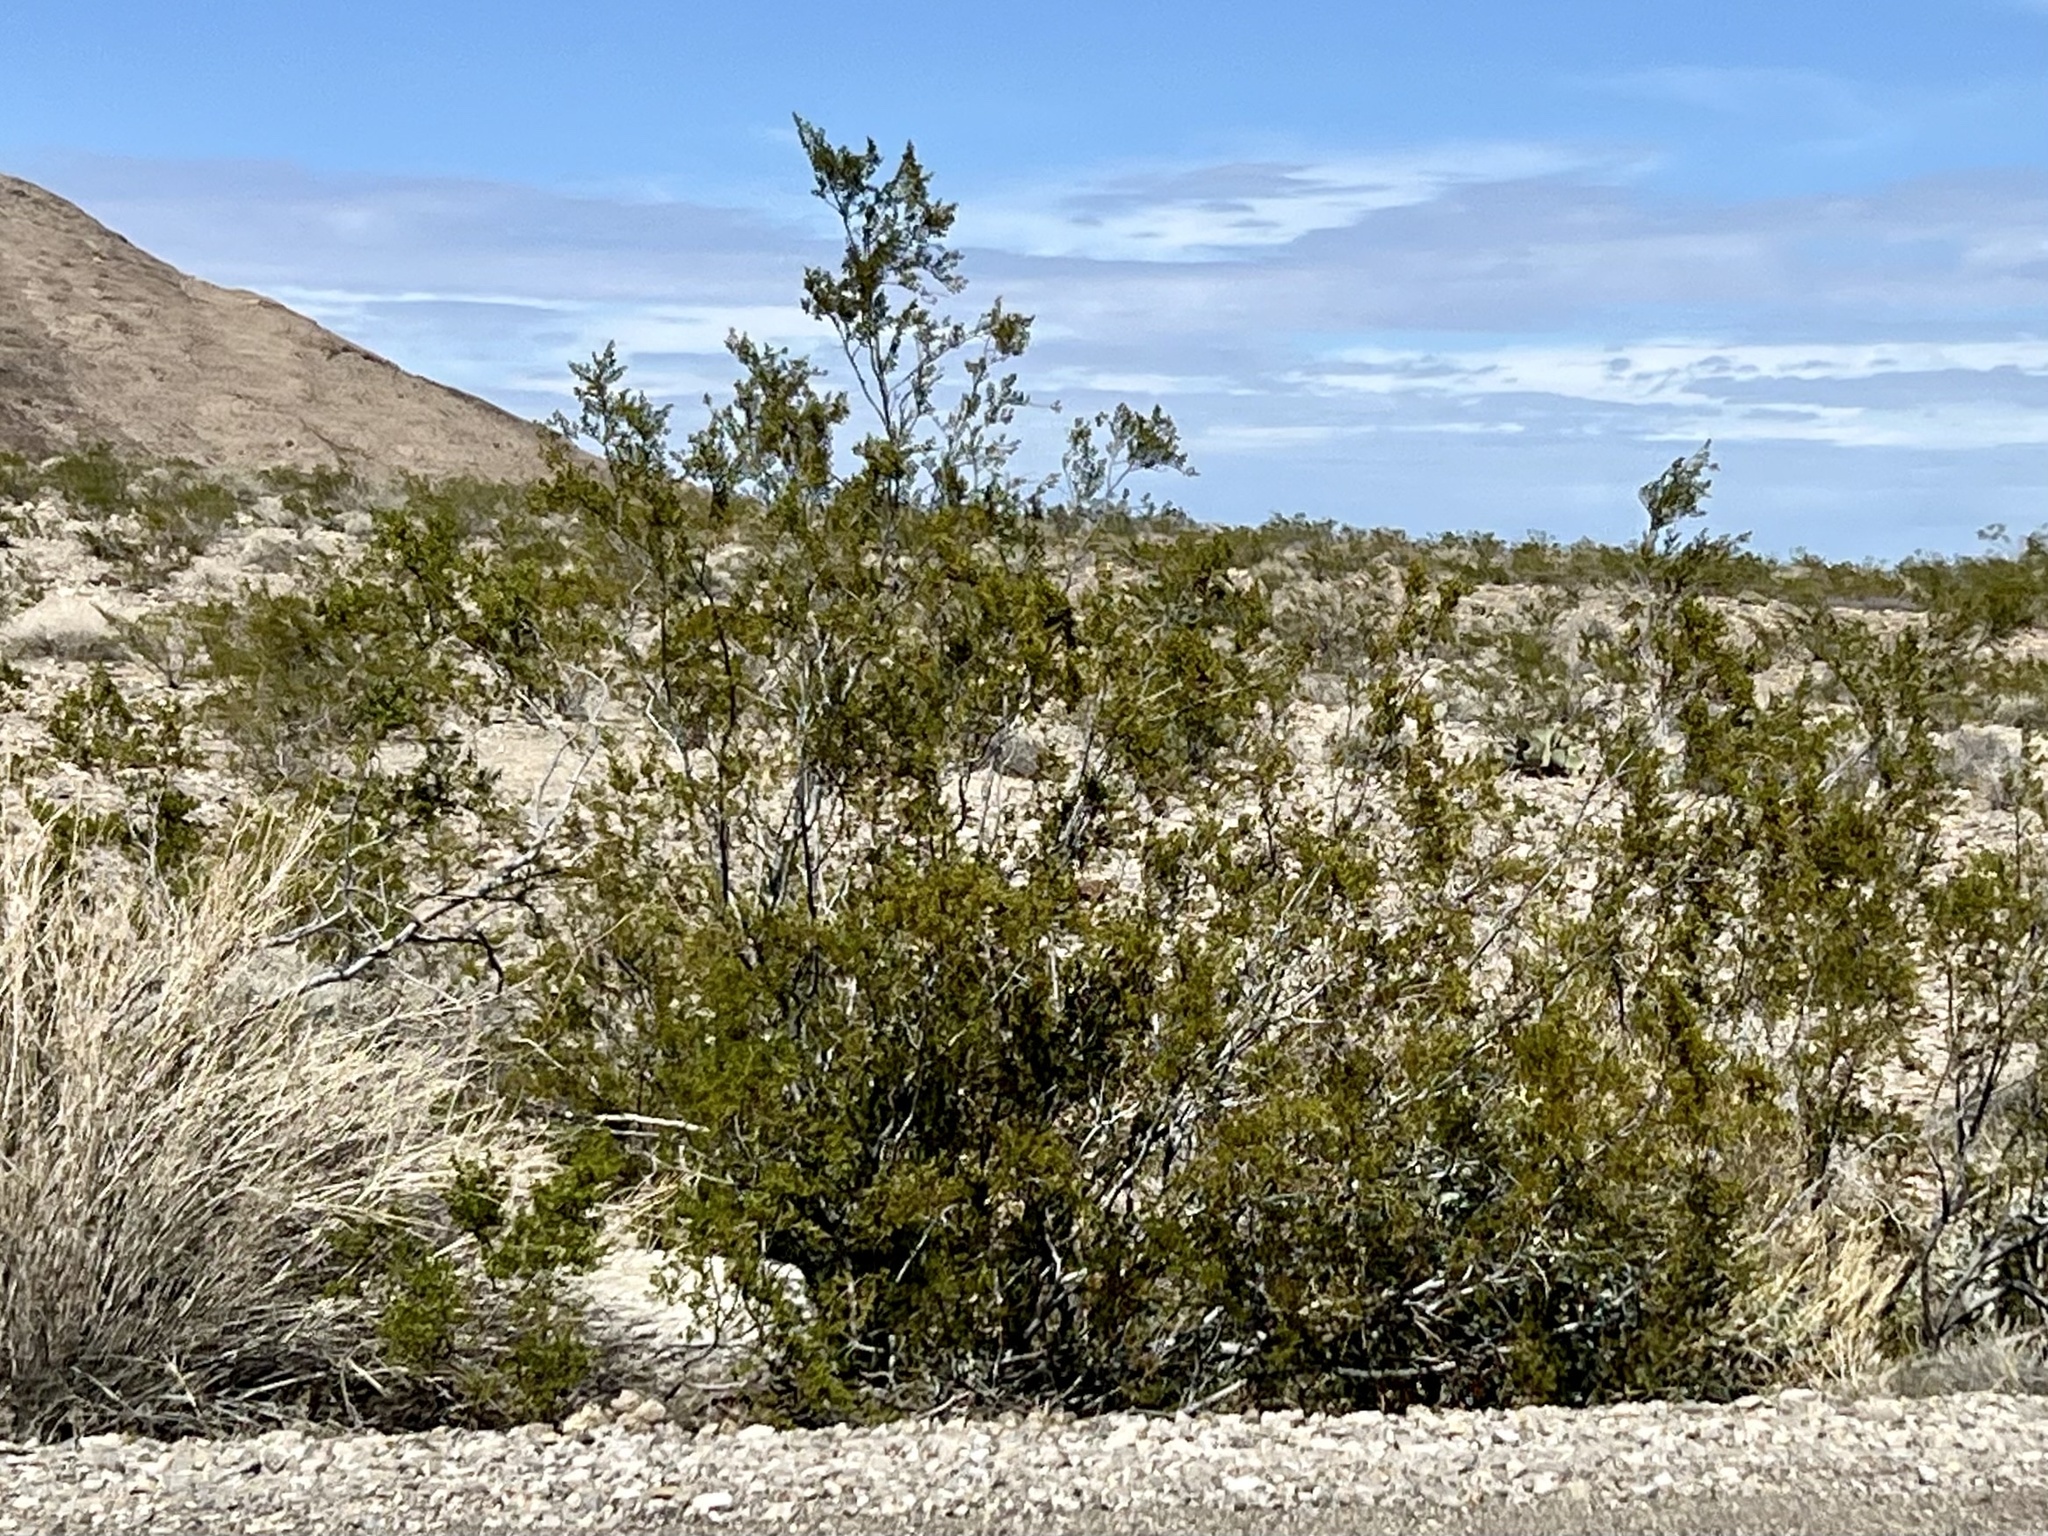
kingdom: Plantae
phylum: Tracheophyta
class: Magnoliopsida
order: Zygophyllales
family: Zygophyllaceae
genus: Larrea
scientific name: Larrea tridentata
